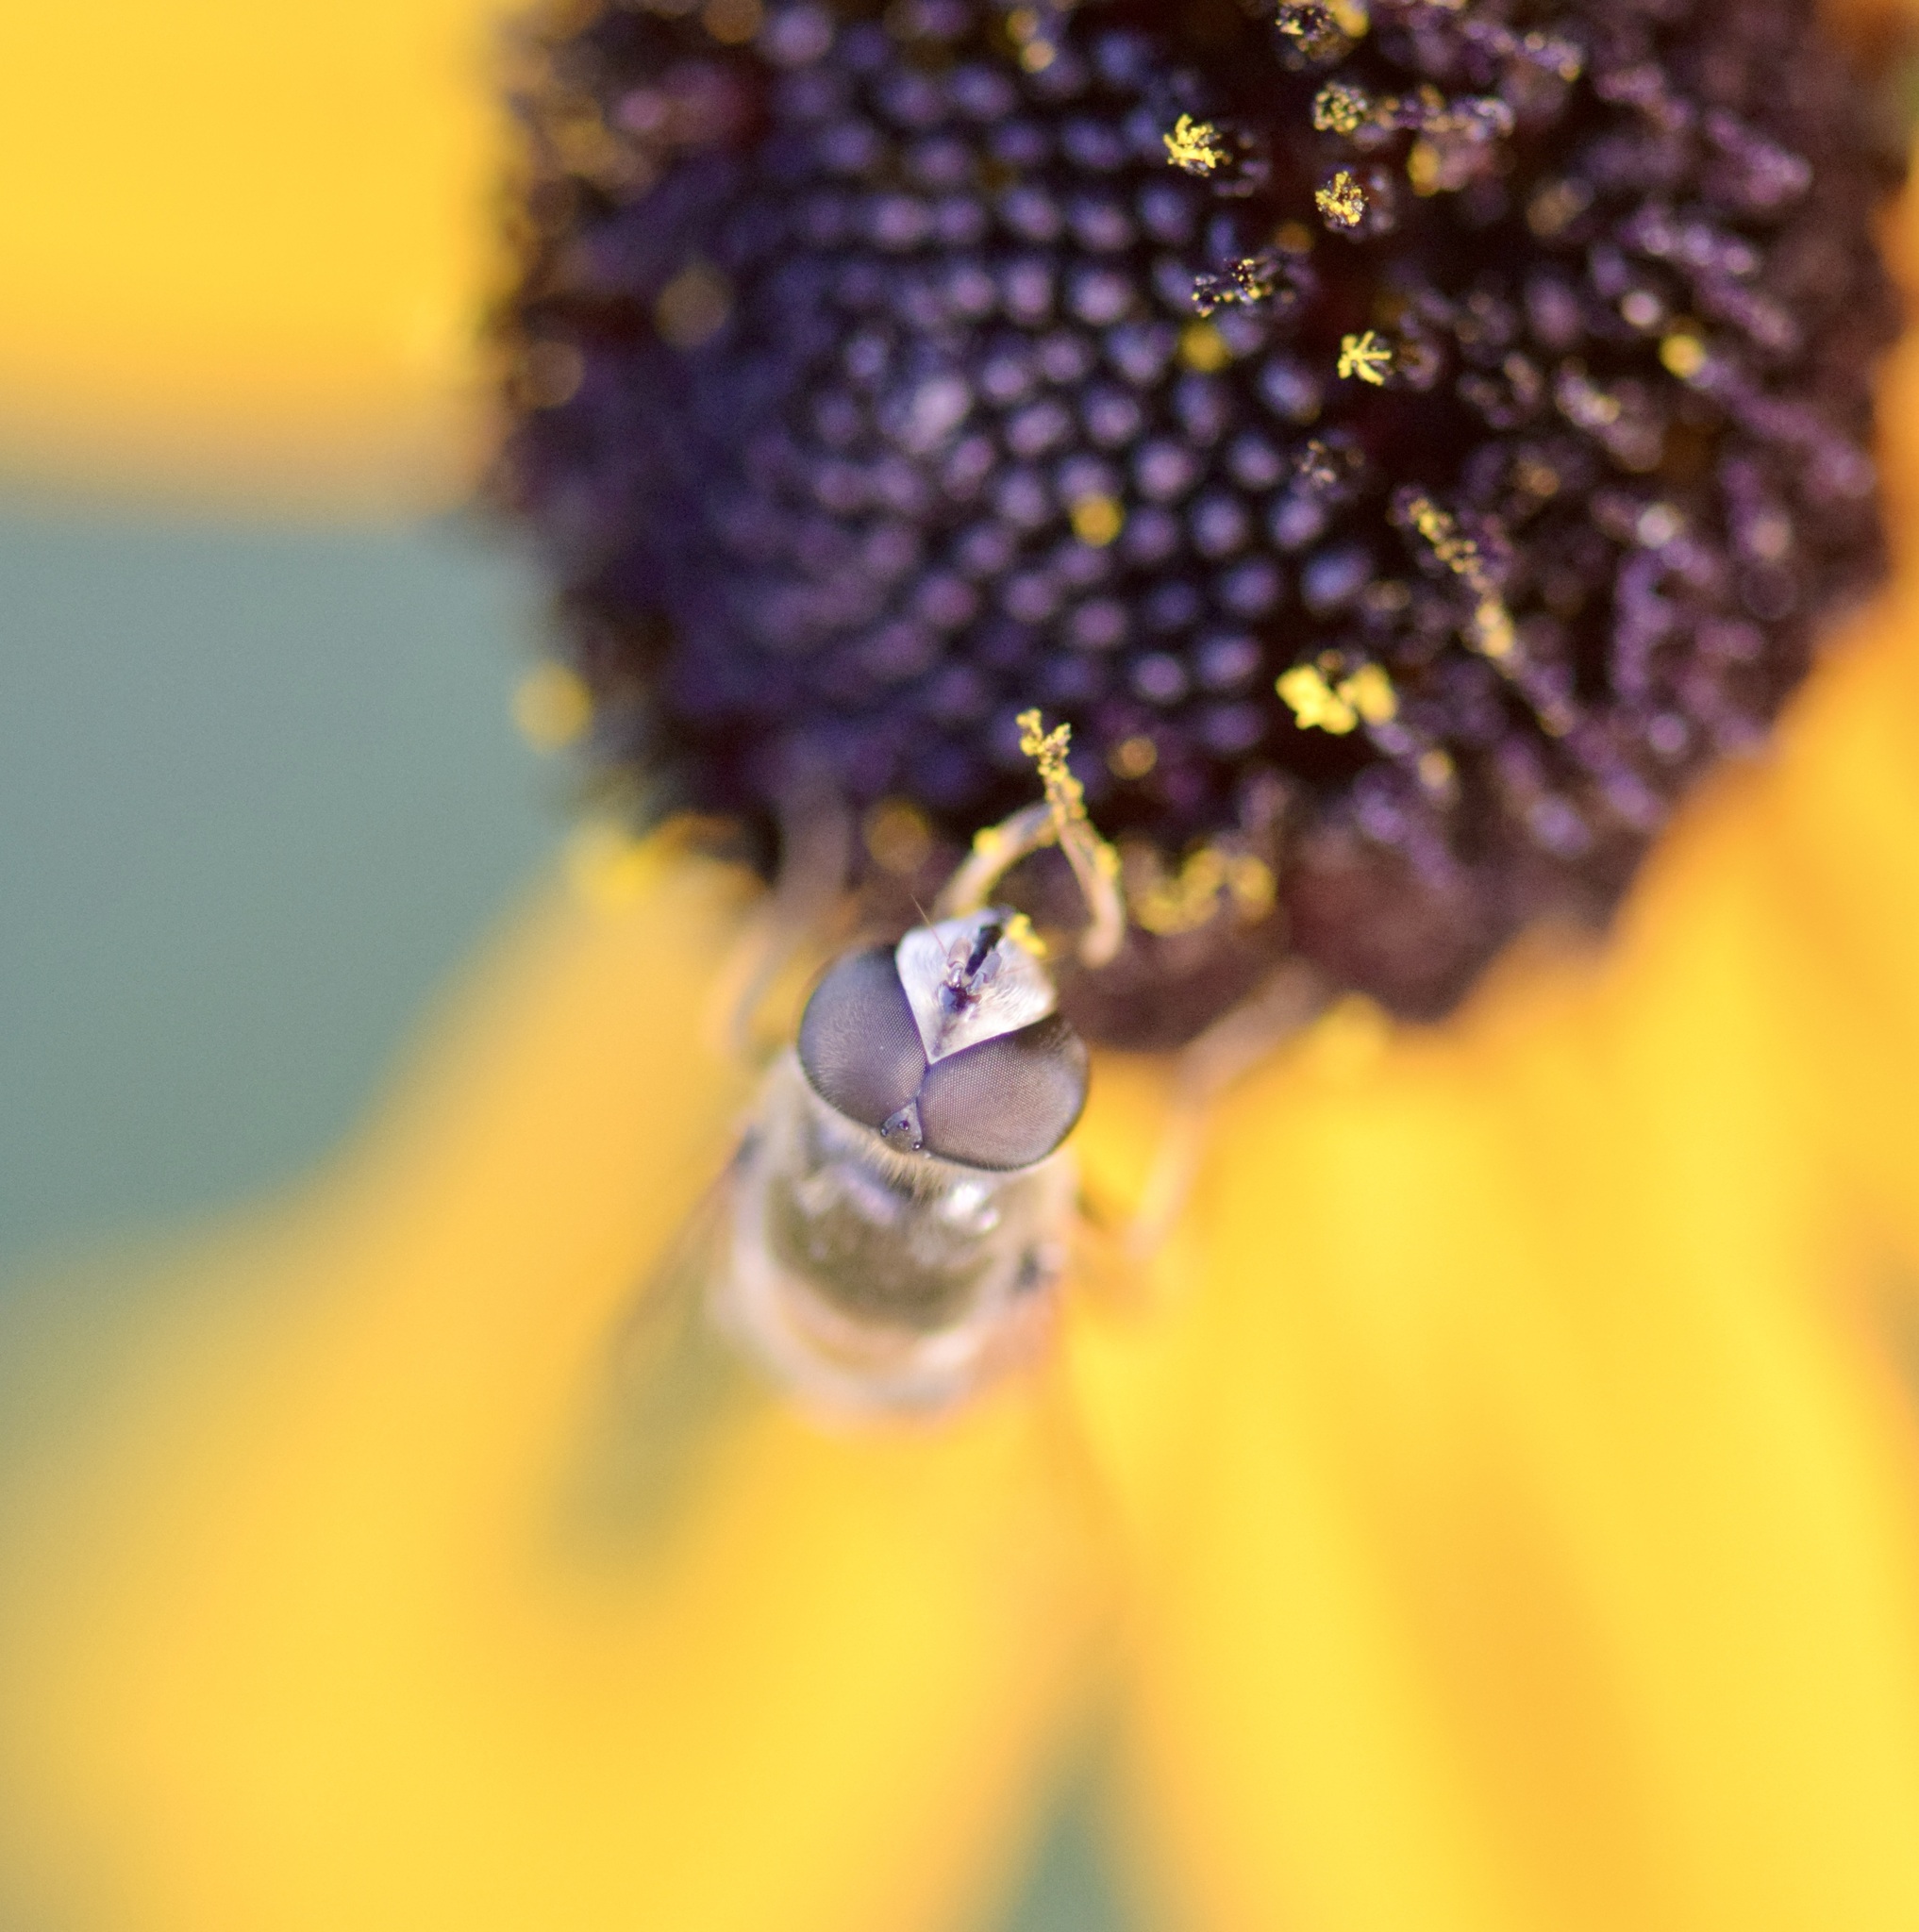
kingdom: Animalia
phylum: Arthropoda
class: Insecta
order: Diptera
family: Syrphidae
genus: Eristalis
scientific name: Eristalis stipator
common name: Yellow-shouldered drone fly
